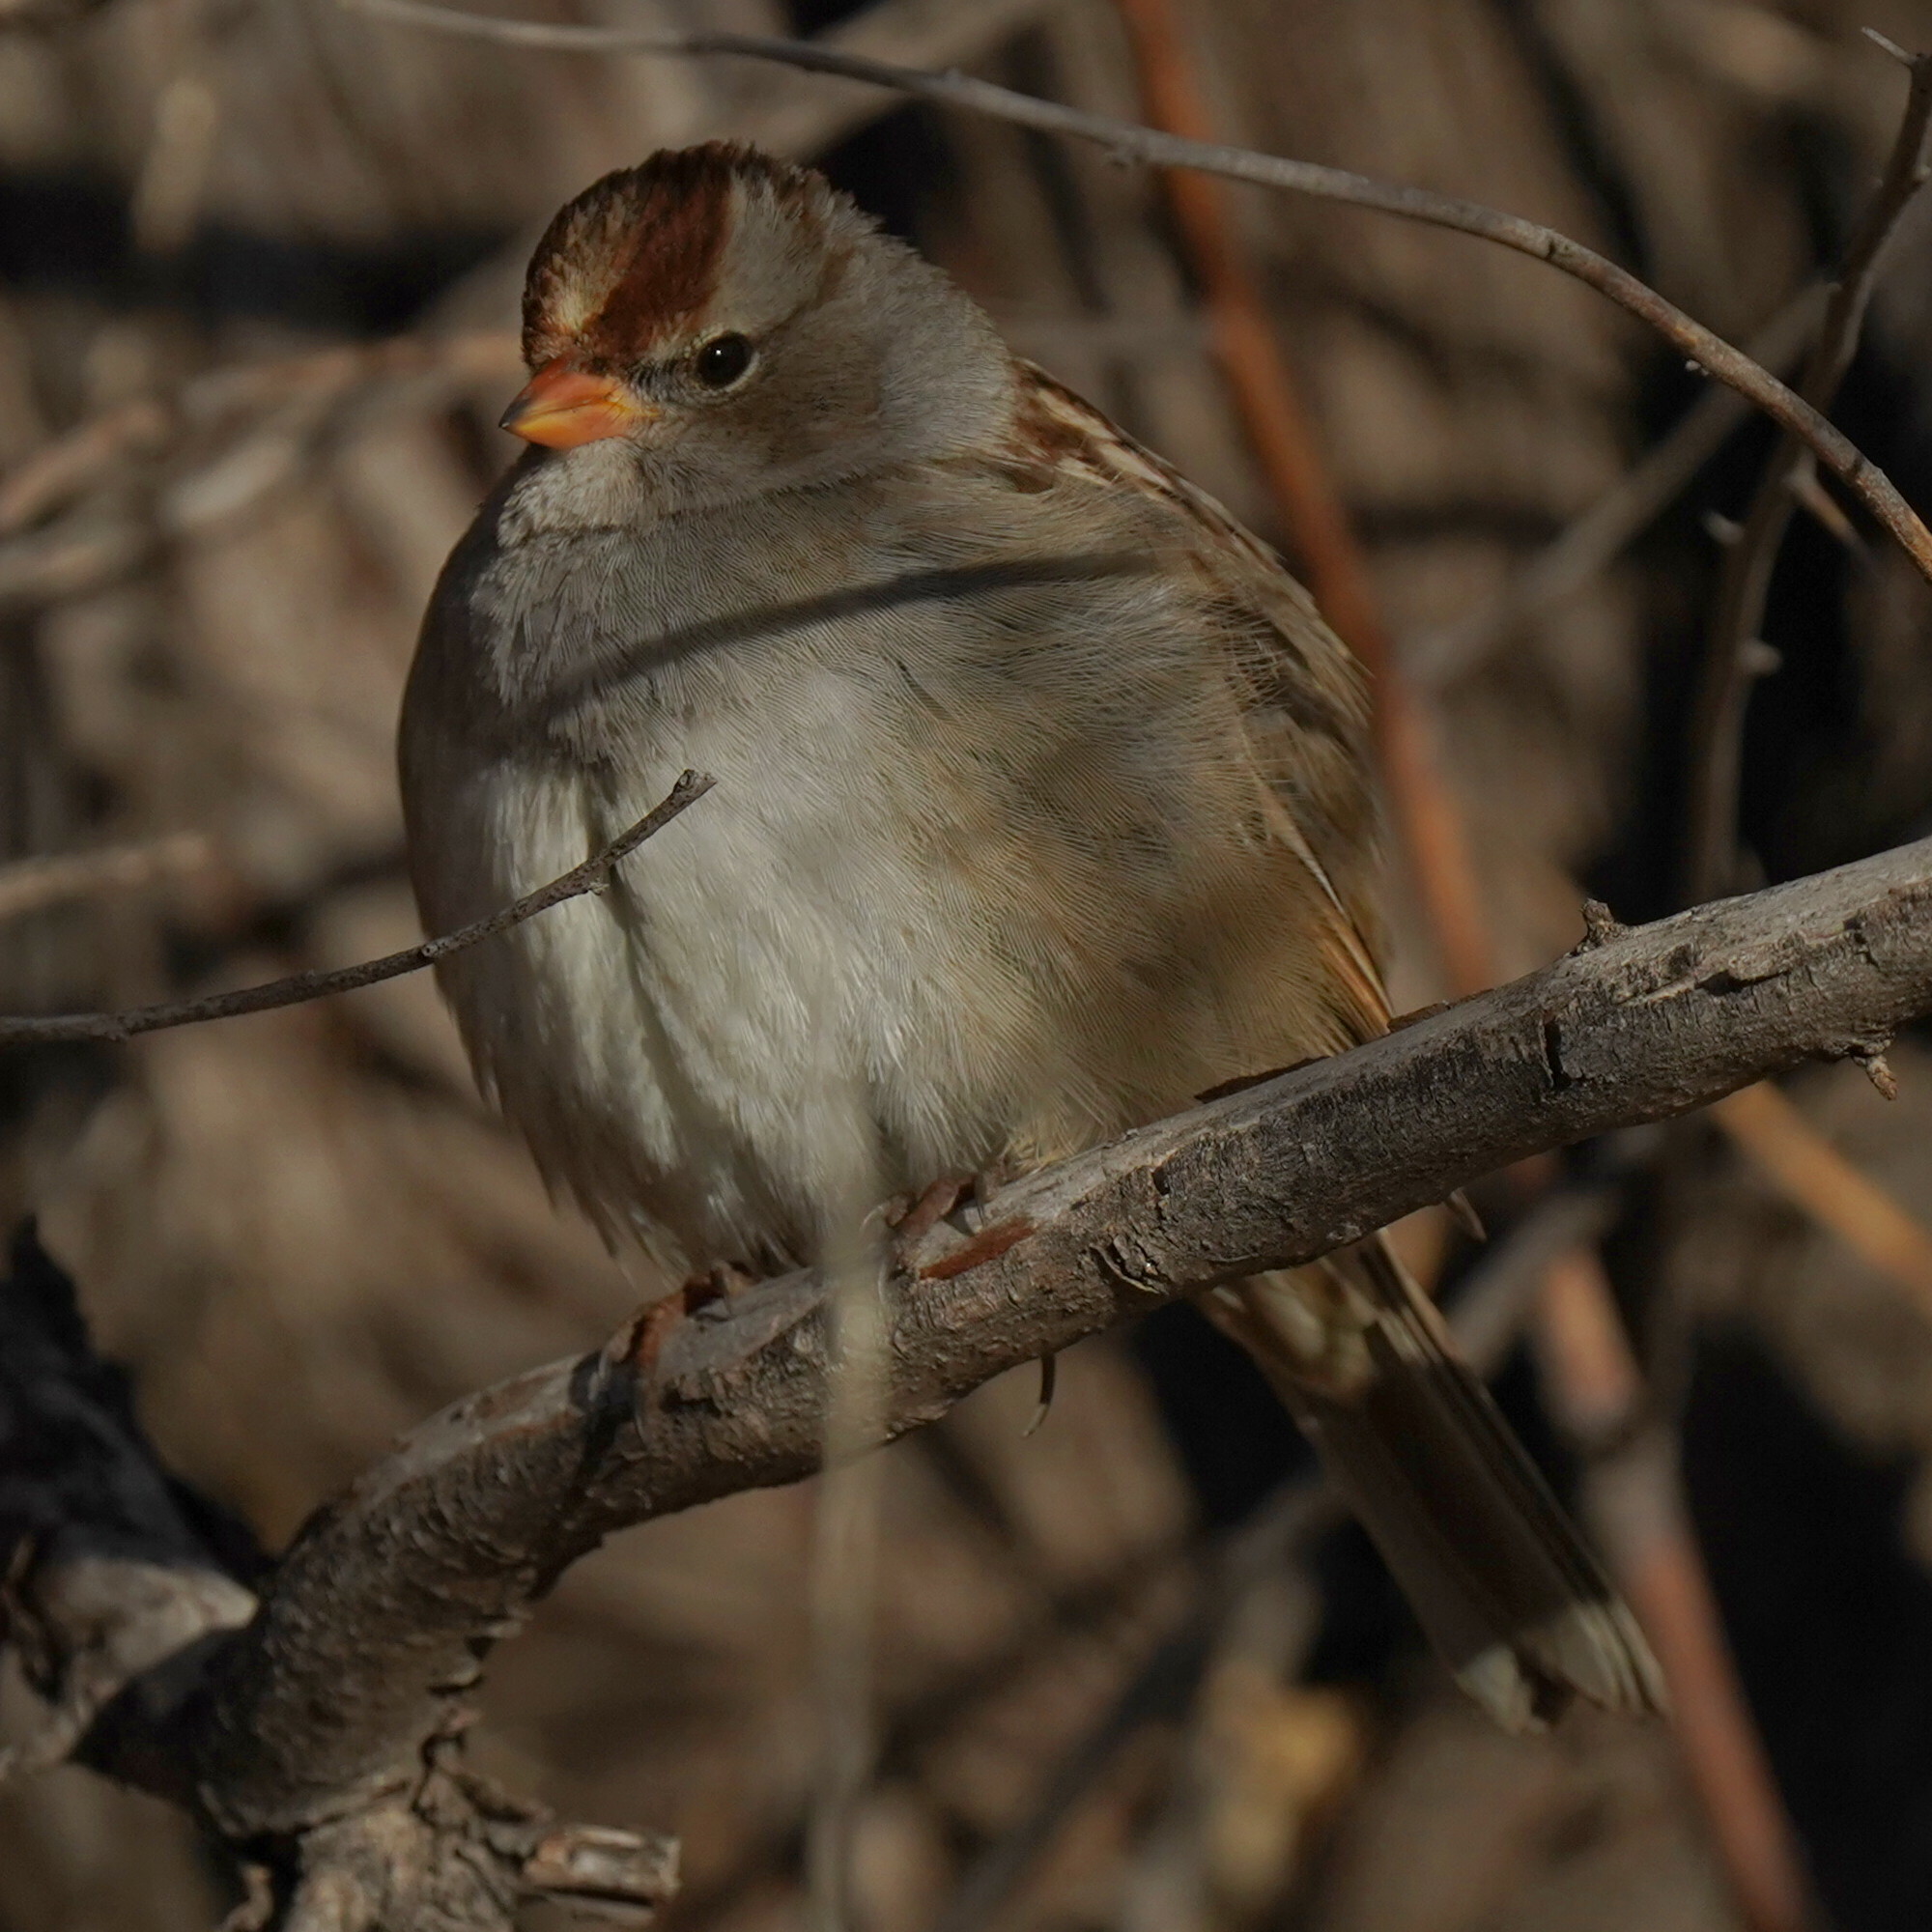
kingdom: Animalia
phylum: Chordata
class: Aves
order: Passeriformes
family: Passerellidae
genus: Zonotrichia
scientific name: Zonotrichia leucophrys
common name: White-crowned sparrow
